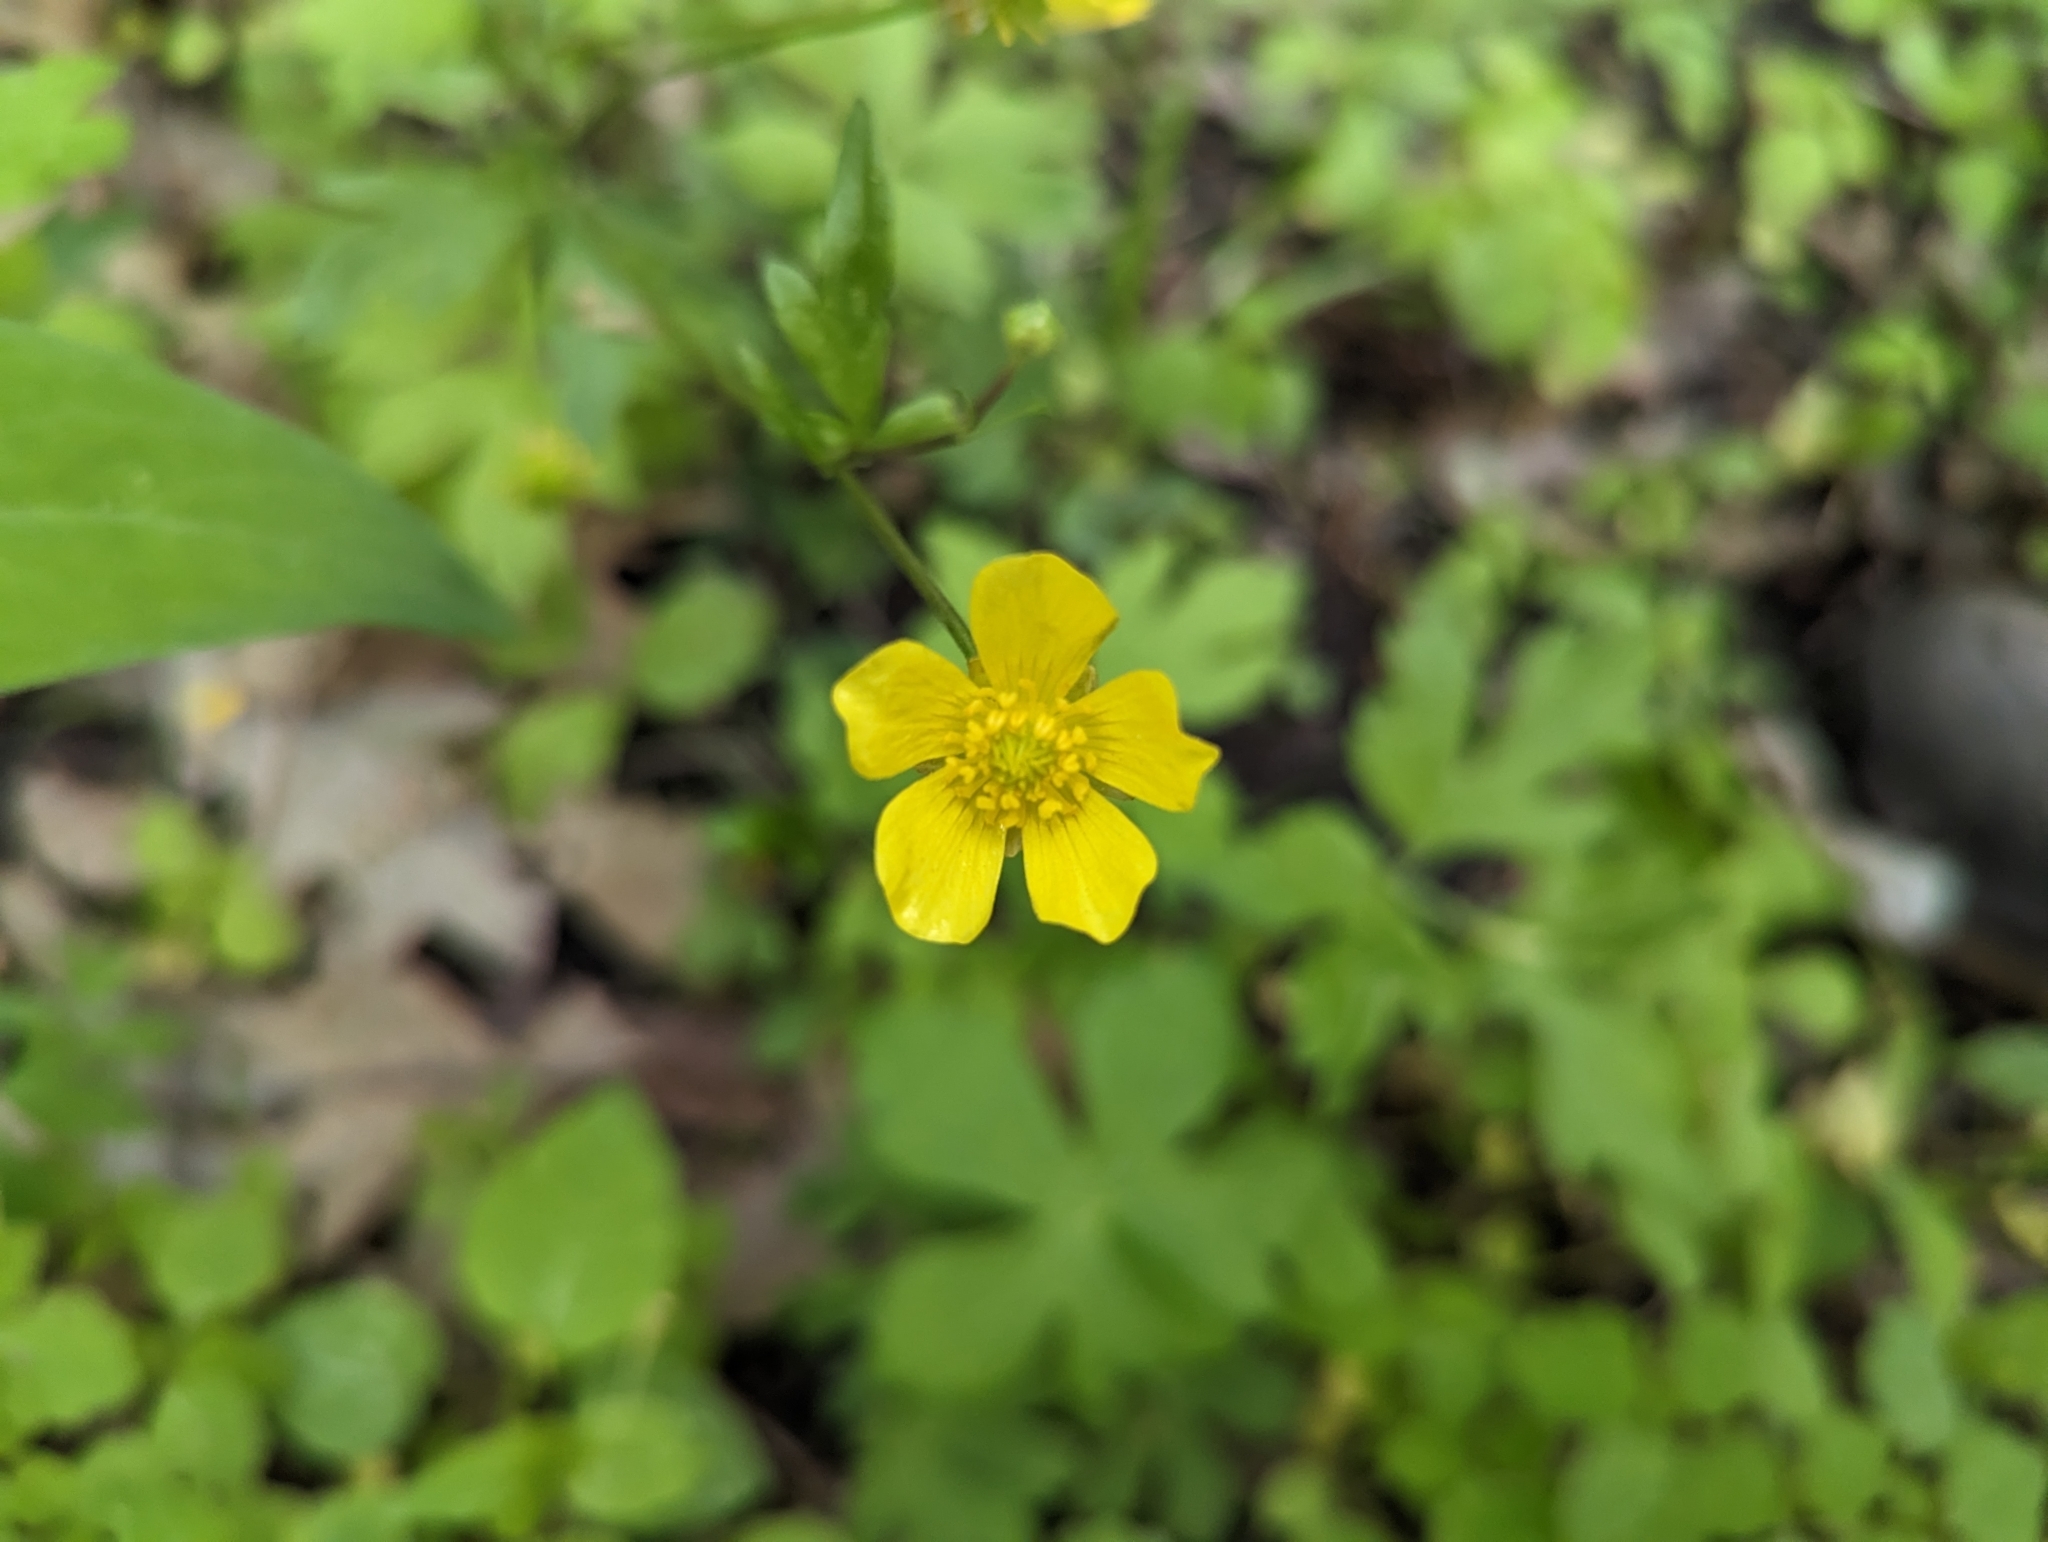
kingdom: Plantae
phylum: Tracheophyta
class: Magnoliopsida
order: Ranunculales
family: Ranunculaceae
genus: Ranunculus
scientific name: Ranunculus hispidus
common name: Bristly buttercup
